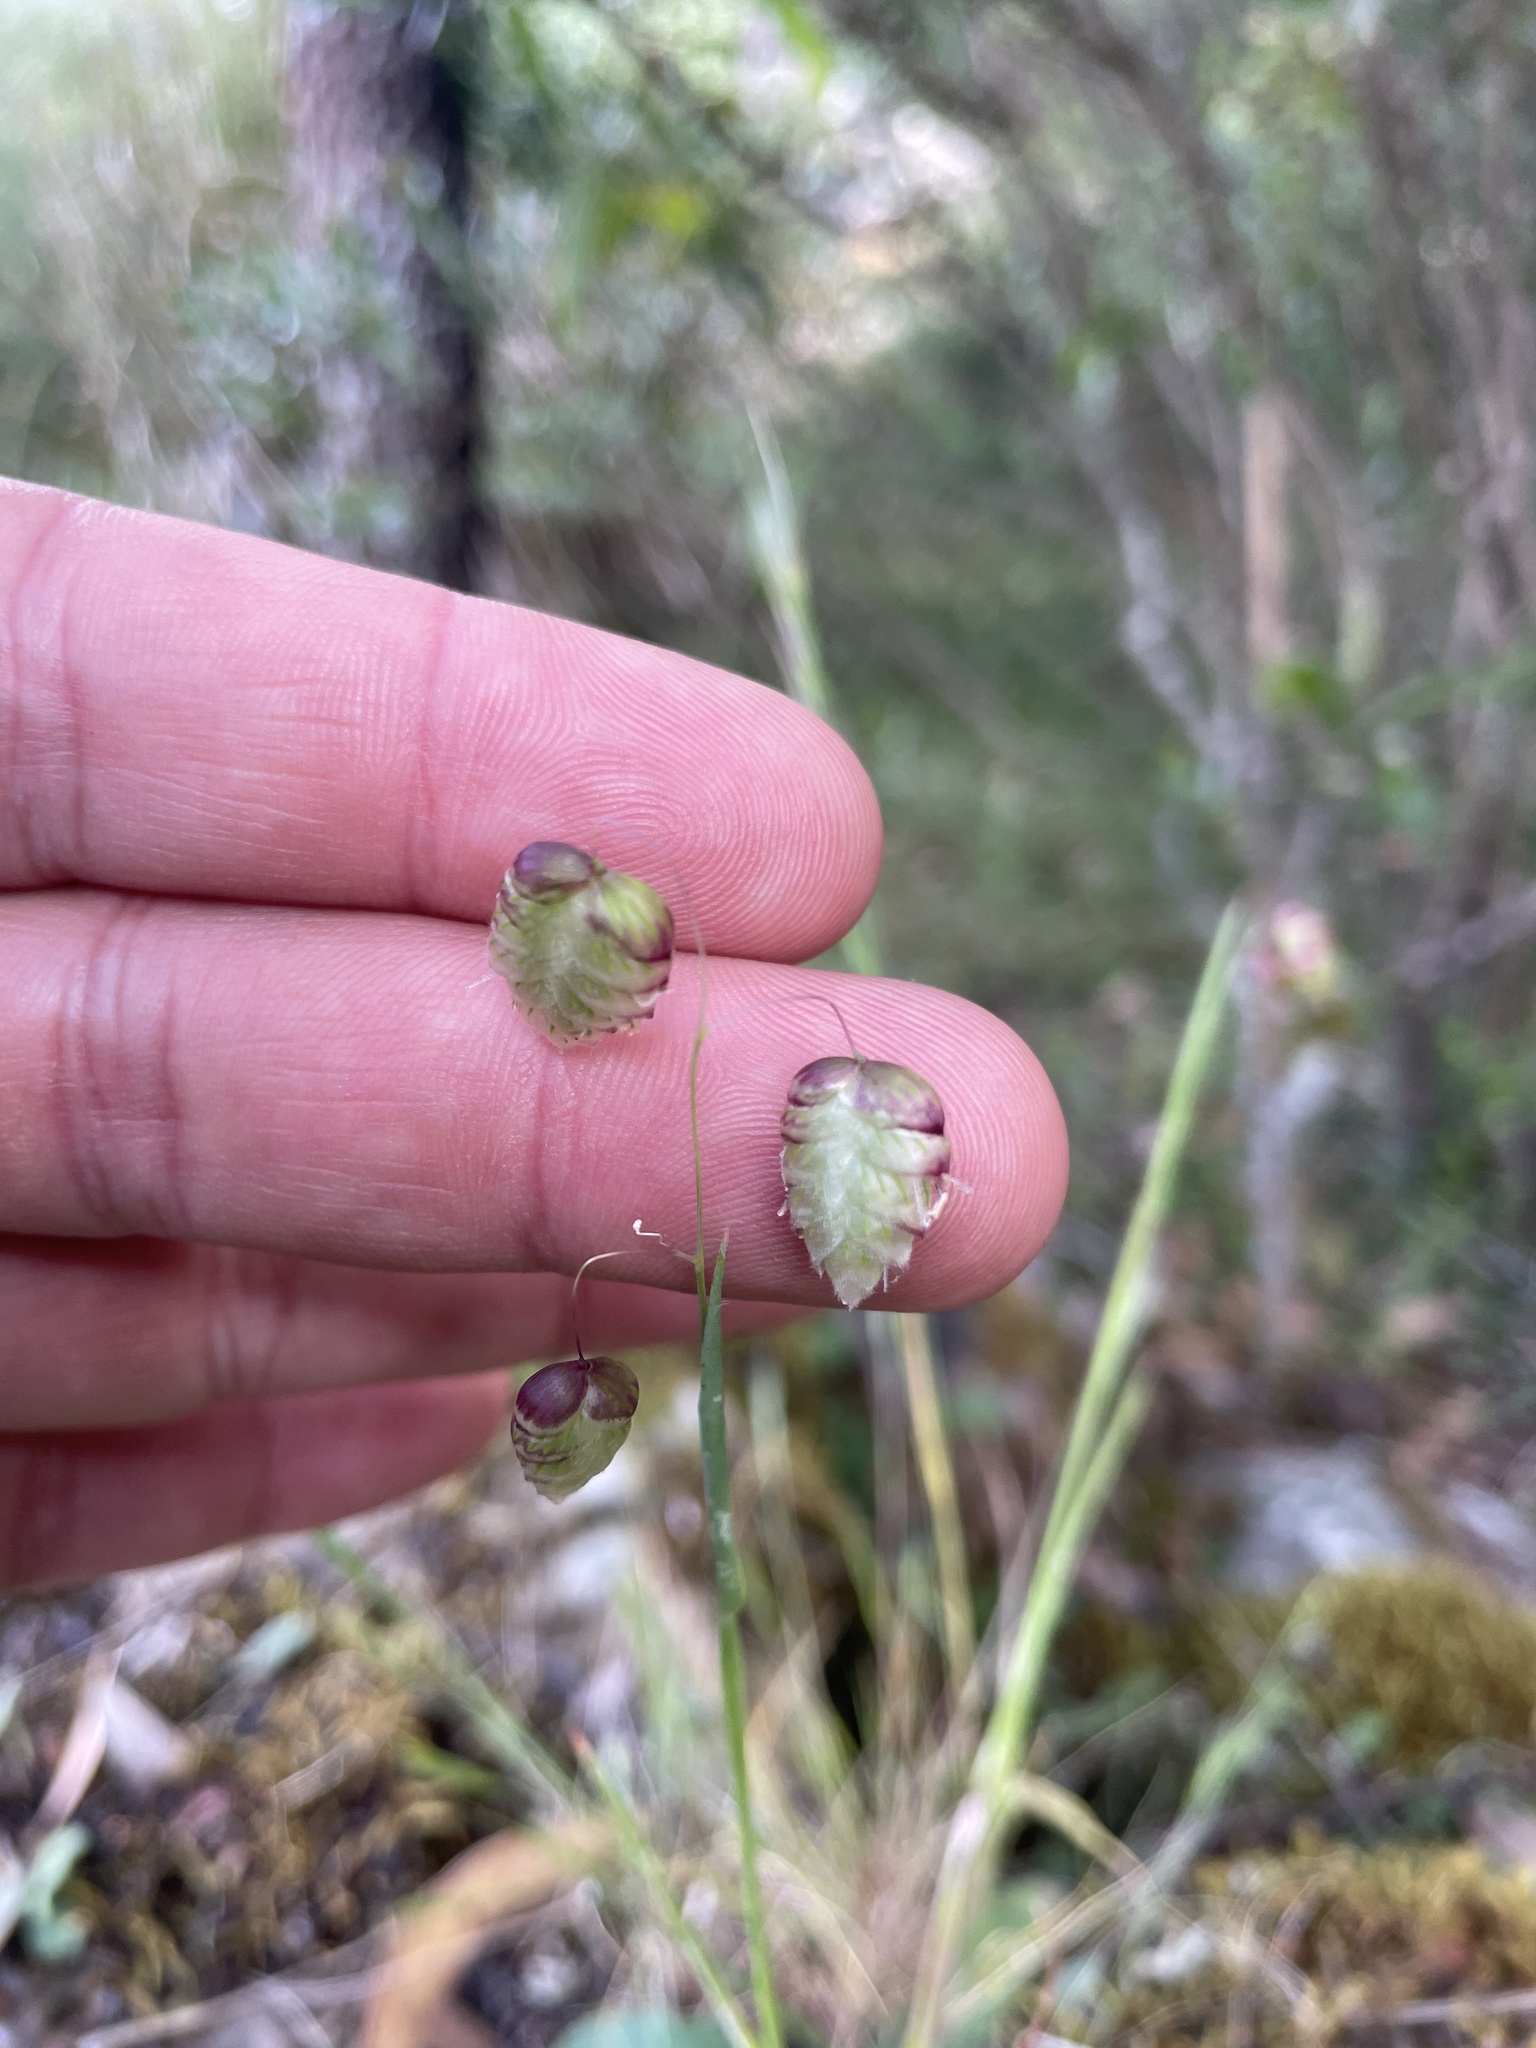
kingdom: Plantae
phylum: Tracheophyta
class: Liliopsida
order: Poales
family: Poaceae
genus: Briza
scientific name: Briza maxima
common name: Big quakinggrass
